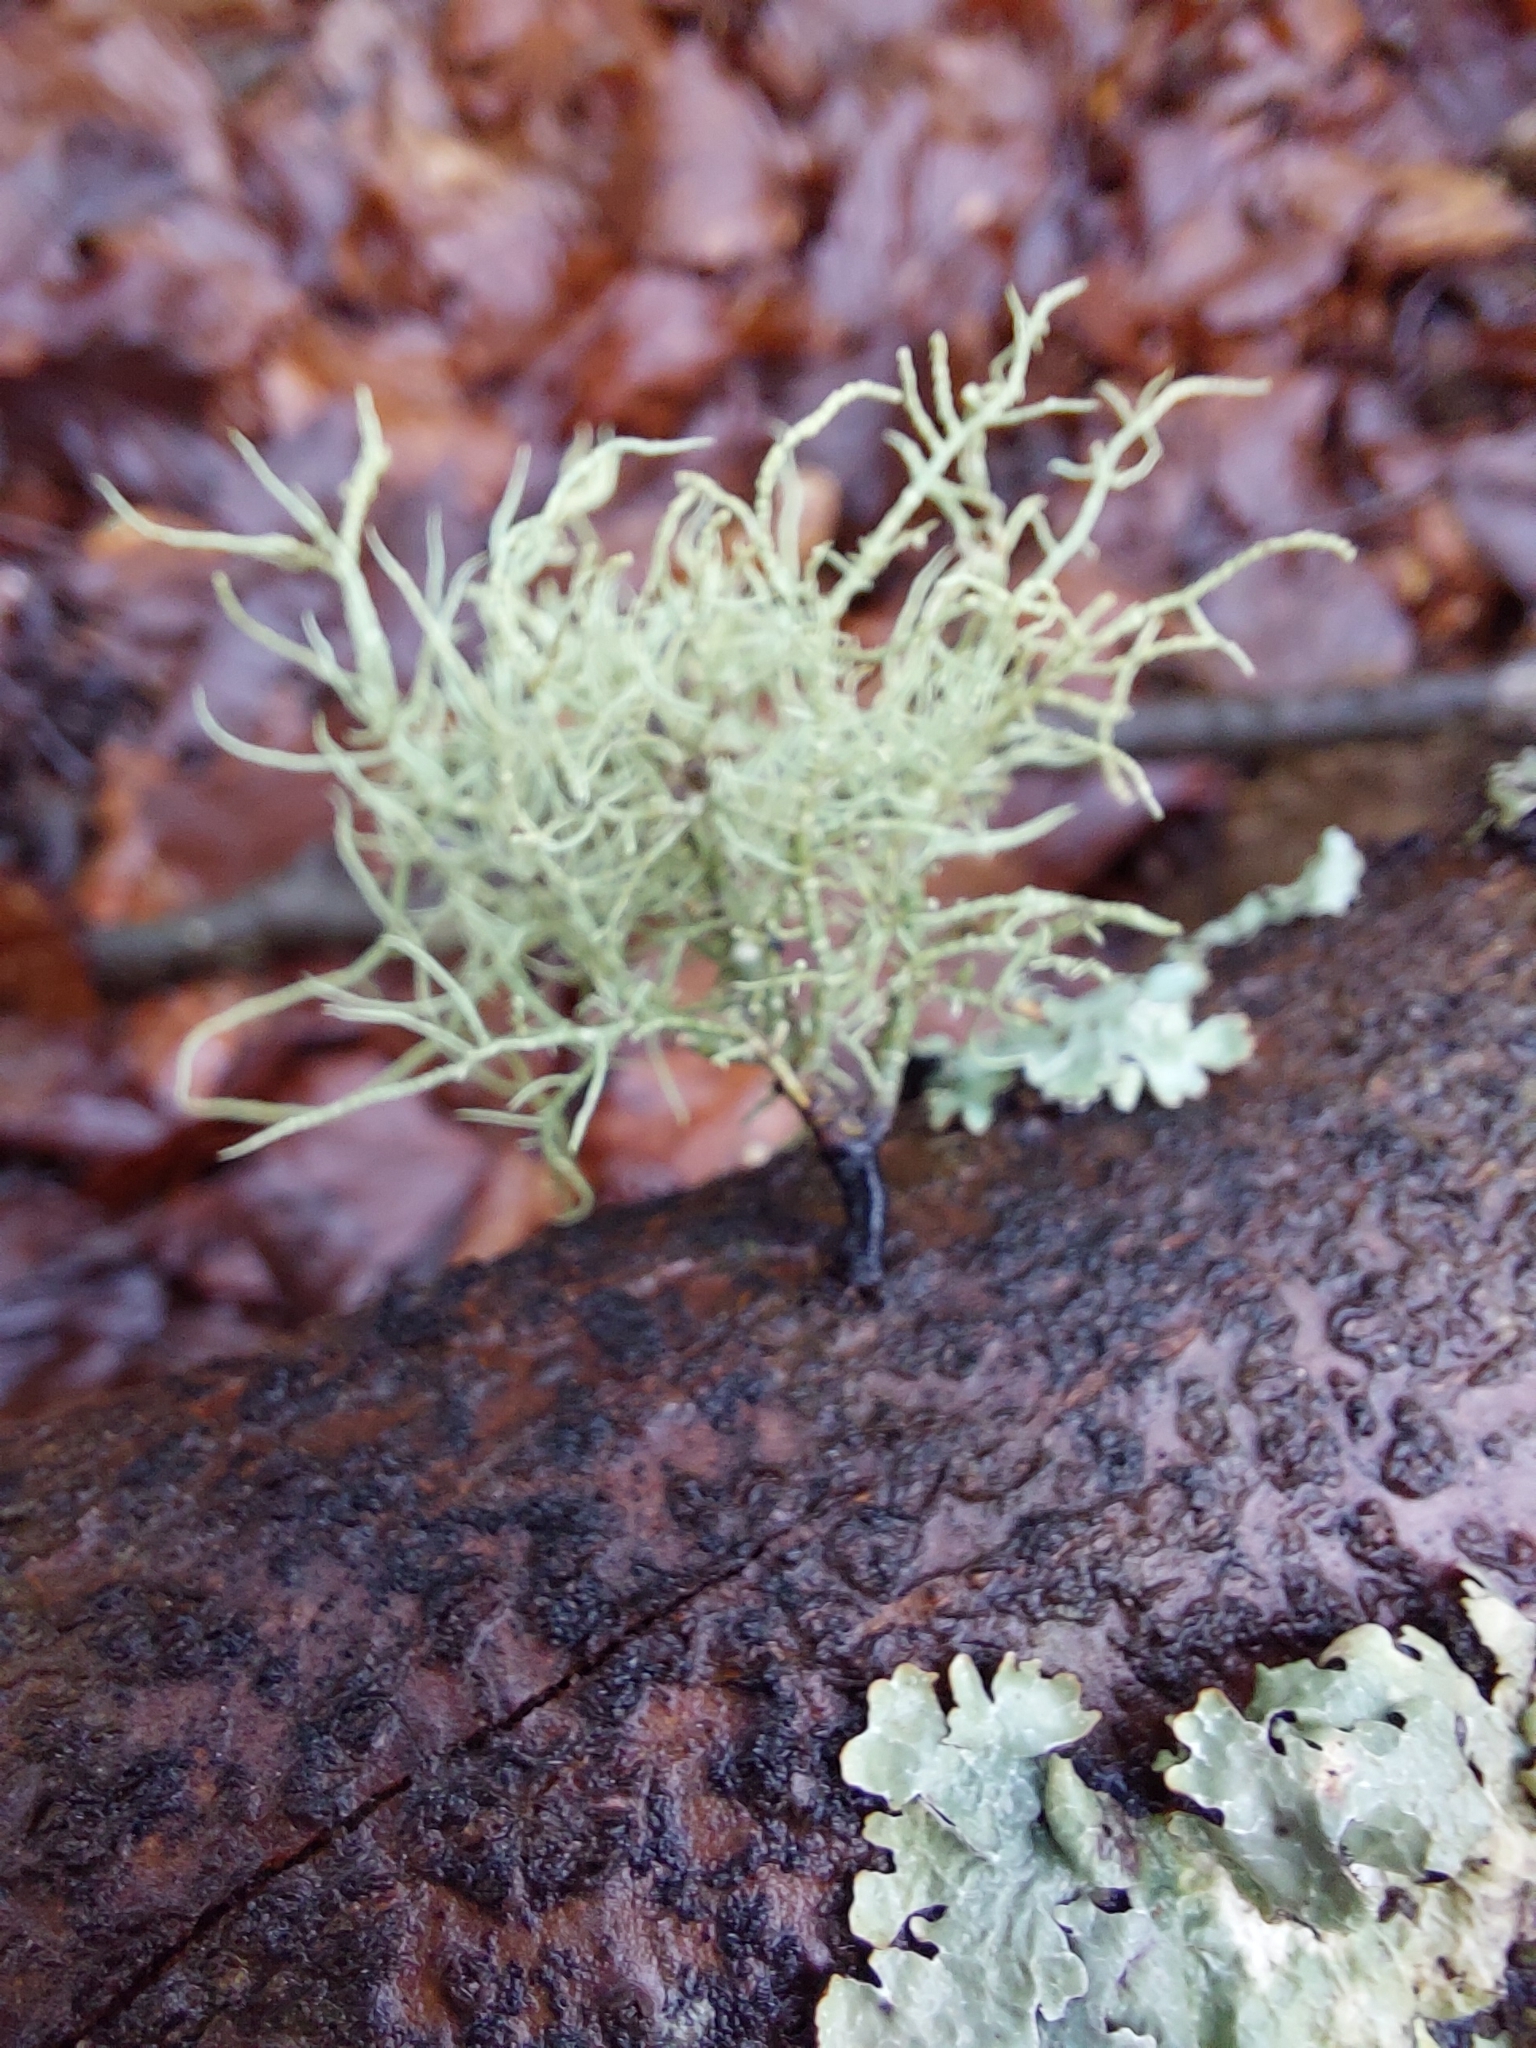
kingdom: Fungi
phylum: Ascomycota
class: Lecanoromycetes
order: Lecanorales
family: Parmeliaceae
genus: Usnea
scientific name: Usnea
